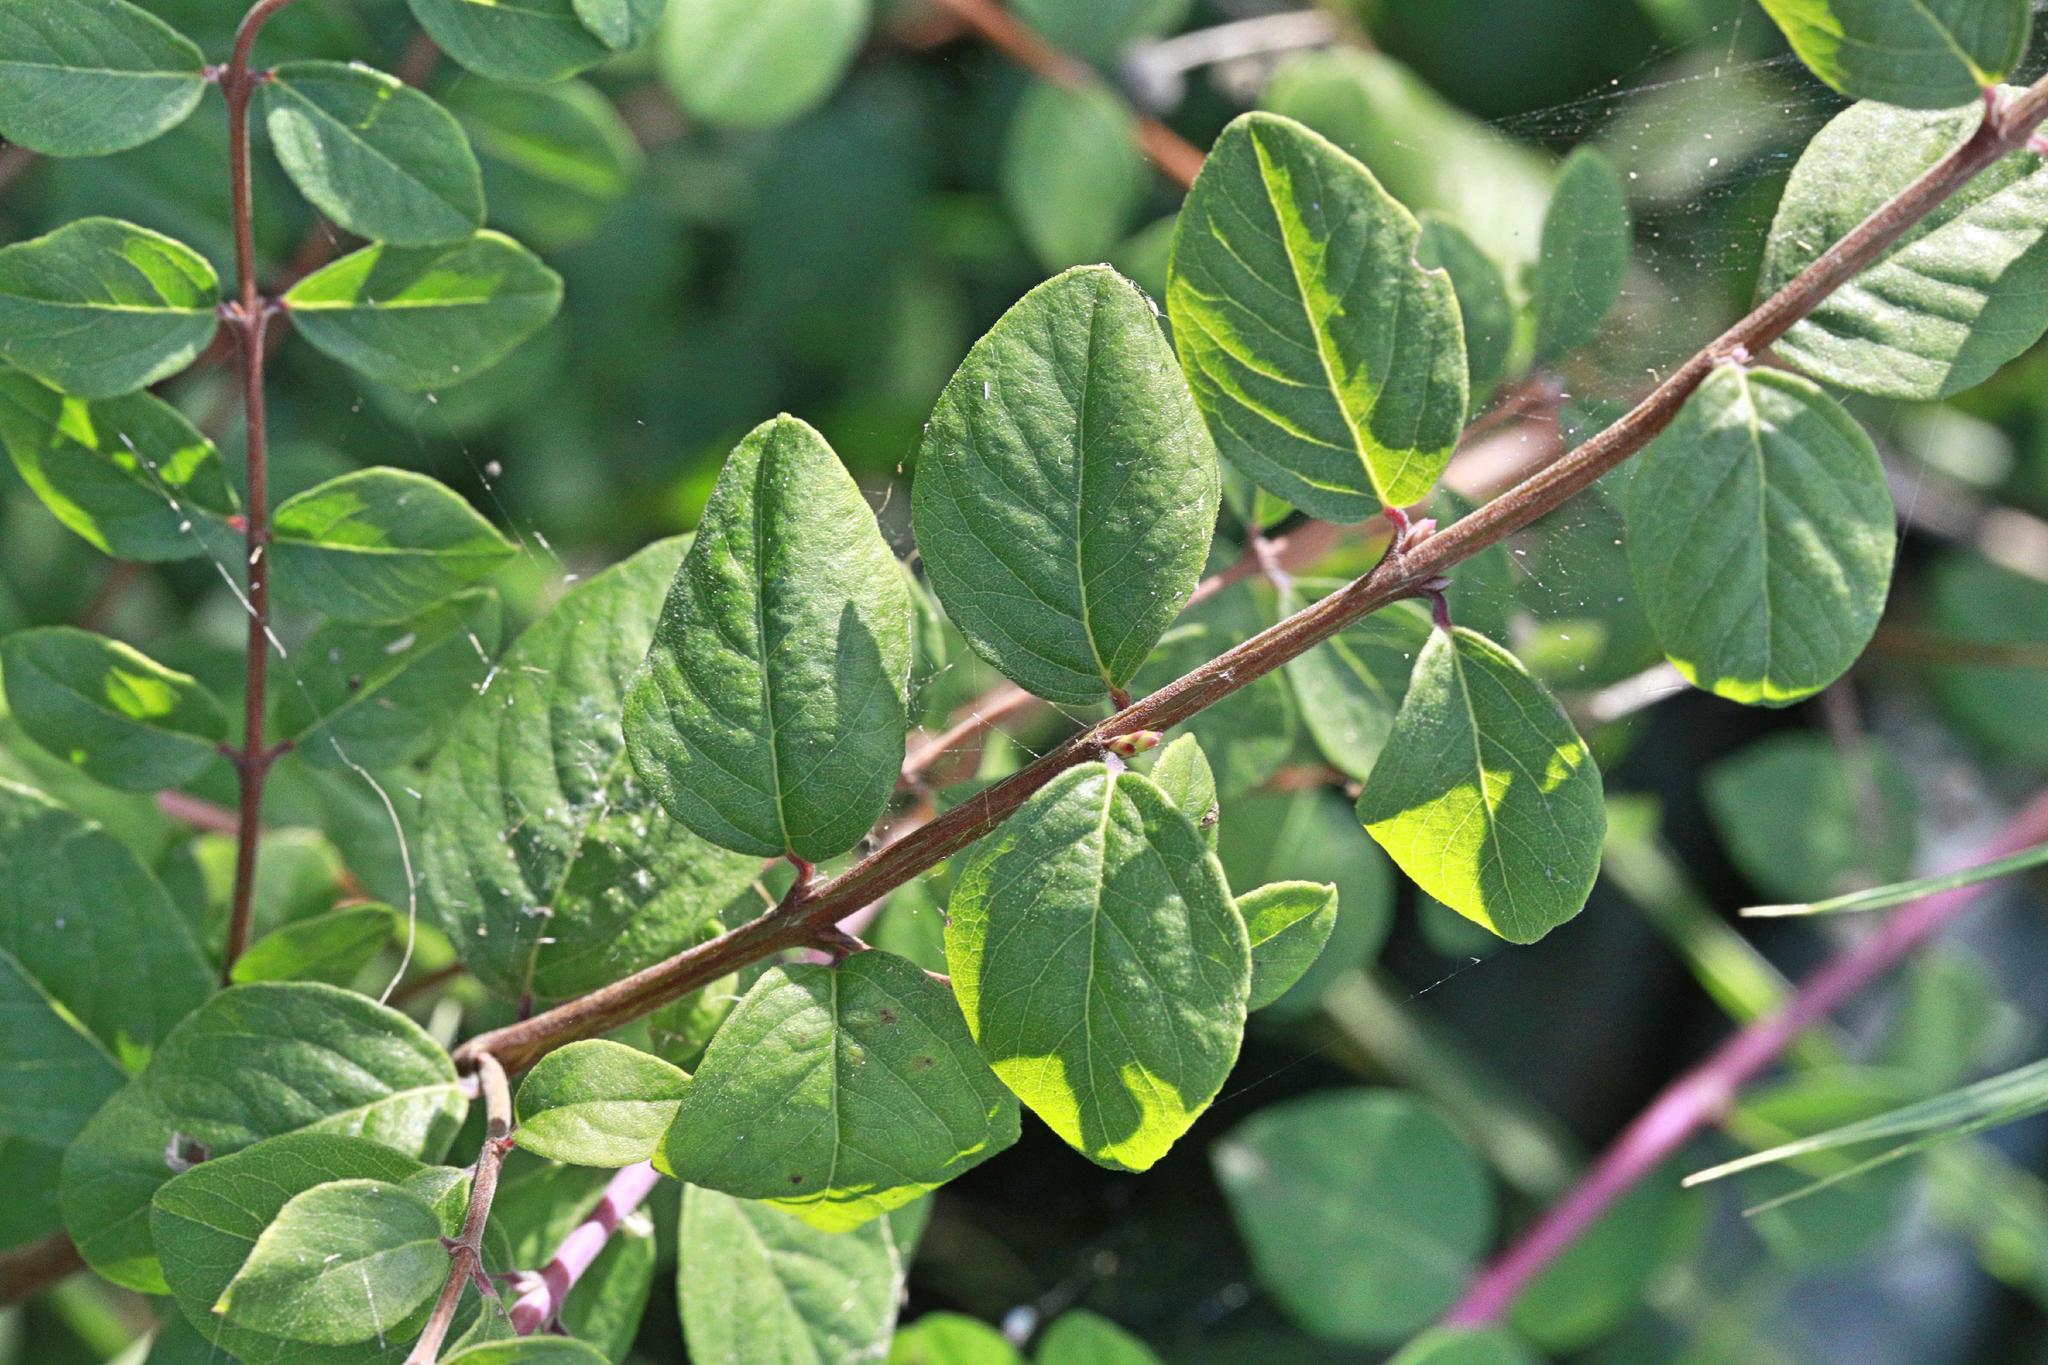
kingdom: Plantae
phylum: Tracheophyta
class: Magnoliopsida
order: Dipsacales
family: Caprifoliaceae
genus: Symphoricarpos
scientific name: Symphoricarpos albus
